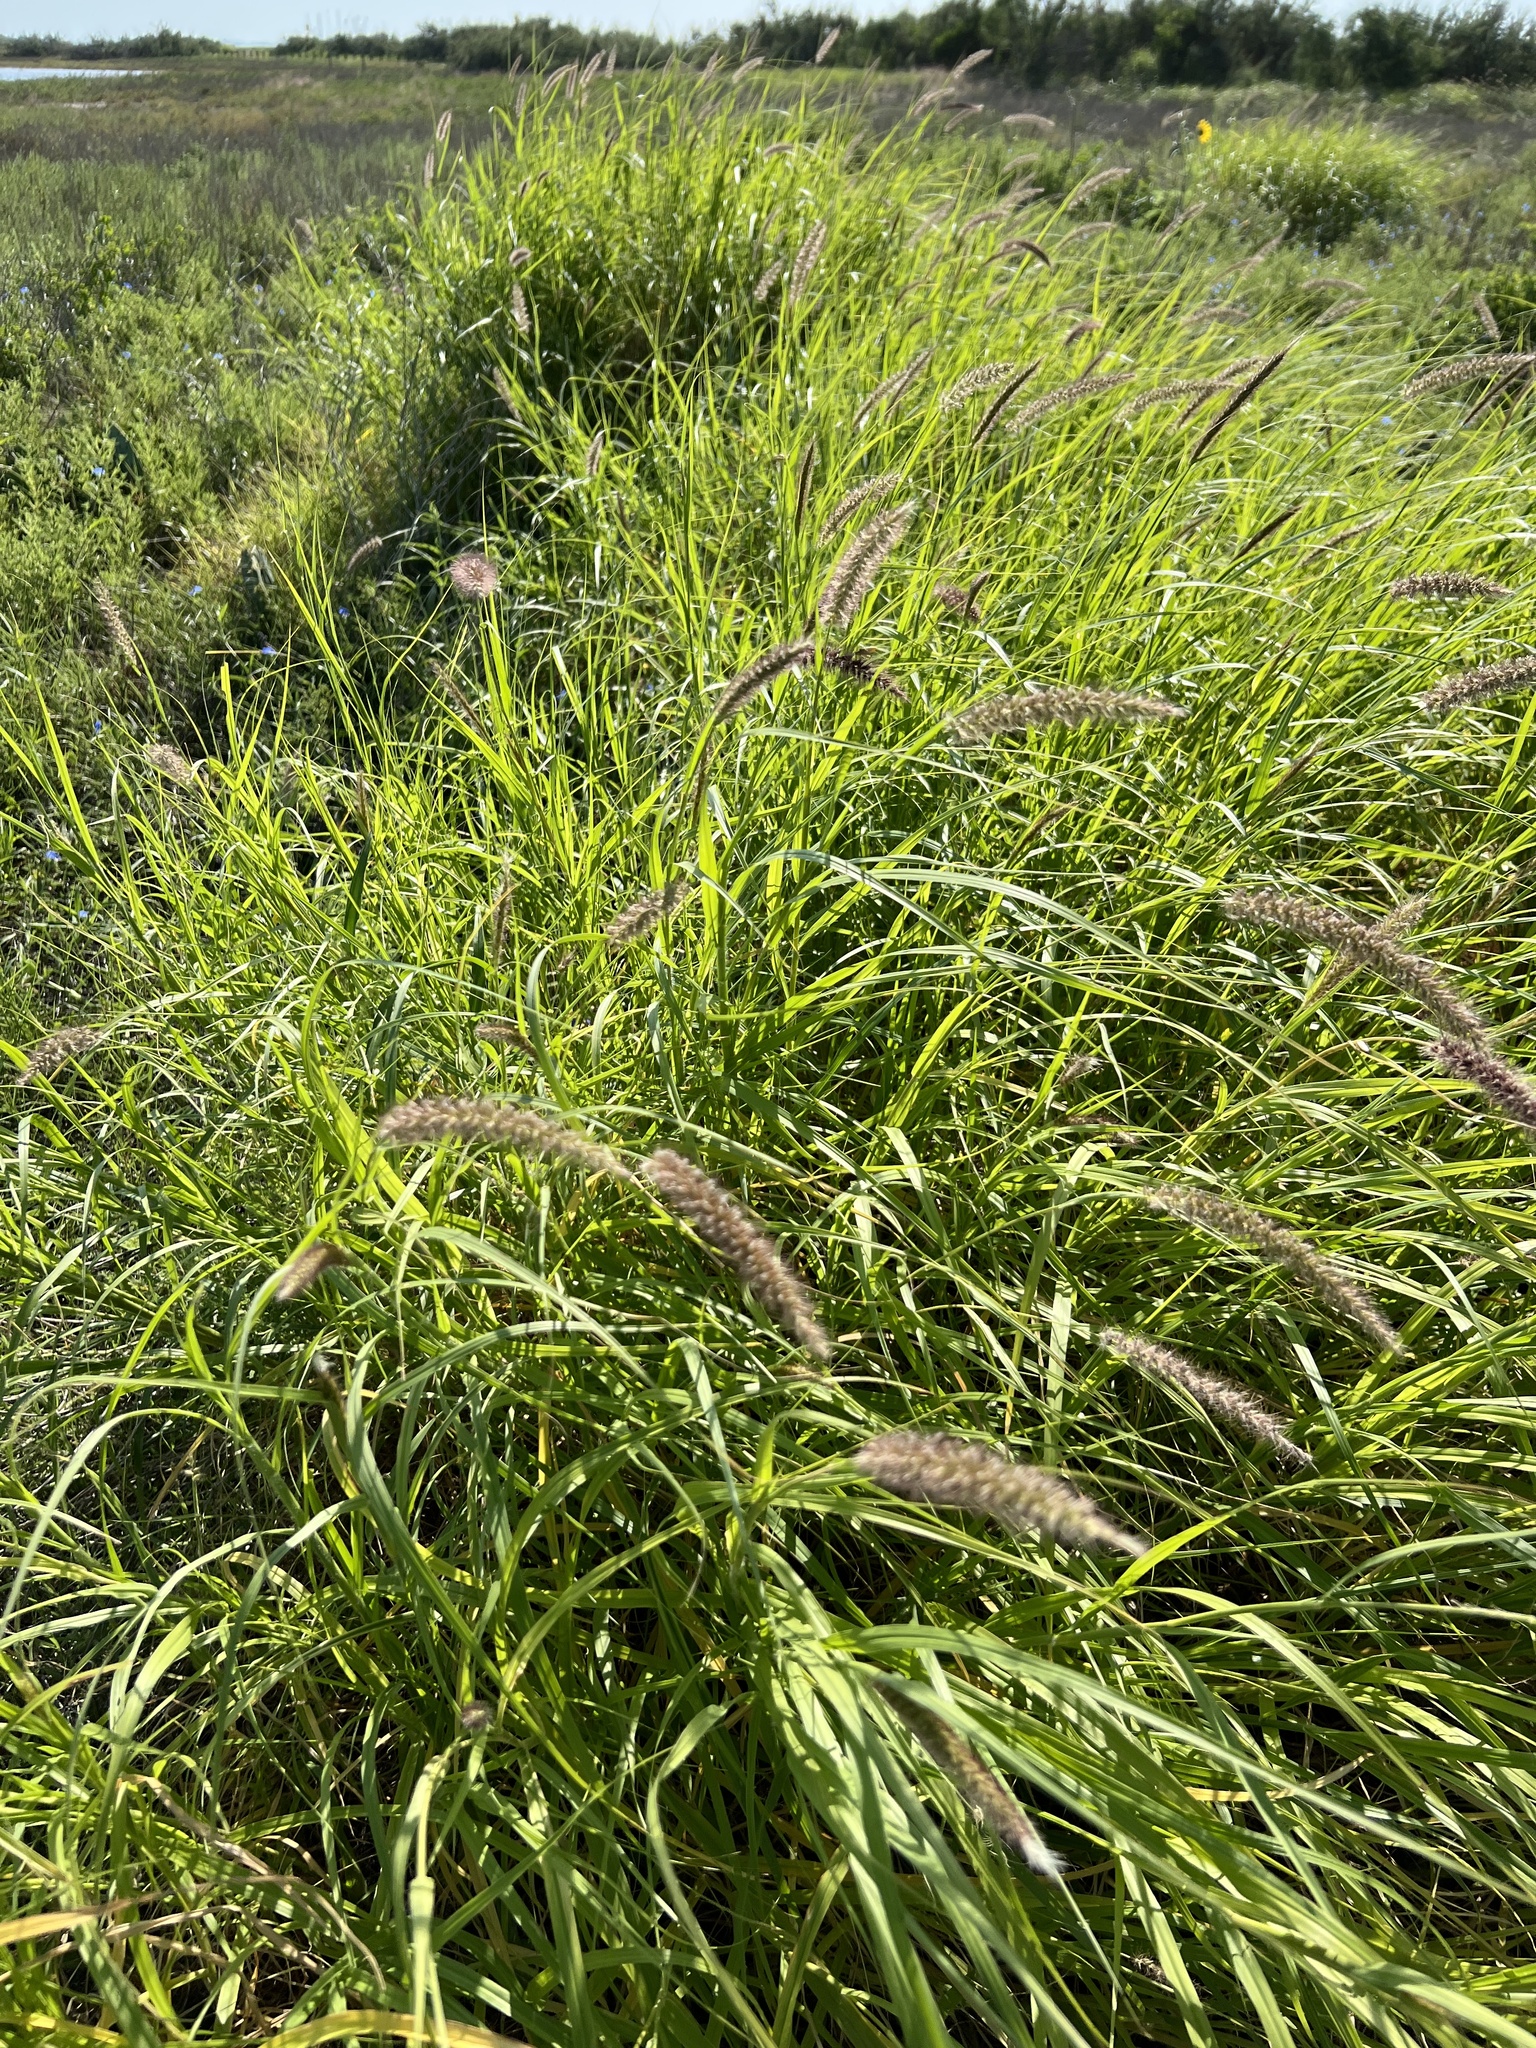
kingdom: Plantae
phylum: Tracheophyta
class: Liliopsida
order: Poales
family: Poaceae
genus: Cenchrus
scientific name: Cenchrus ciliaris
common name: Buffelgrass
